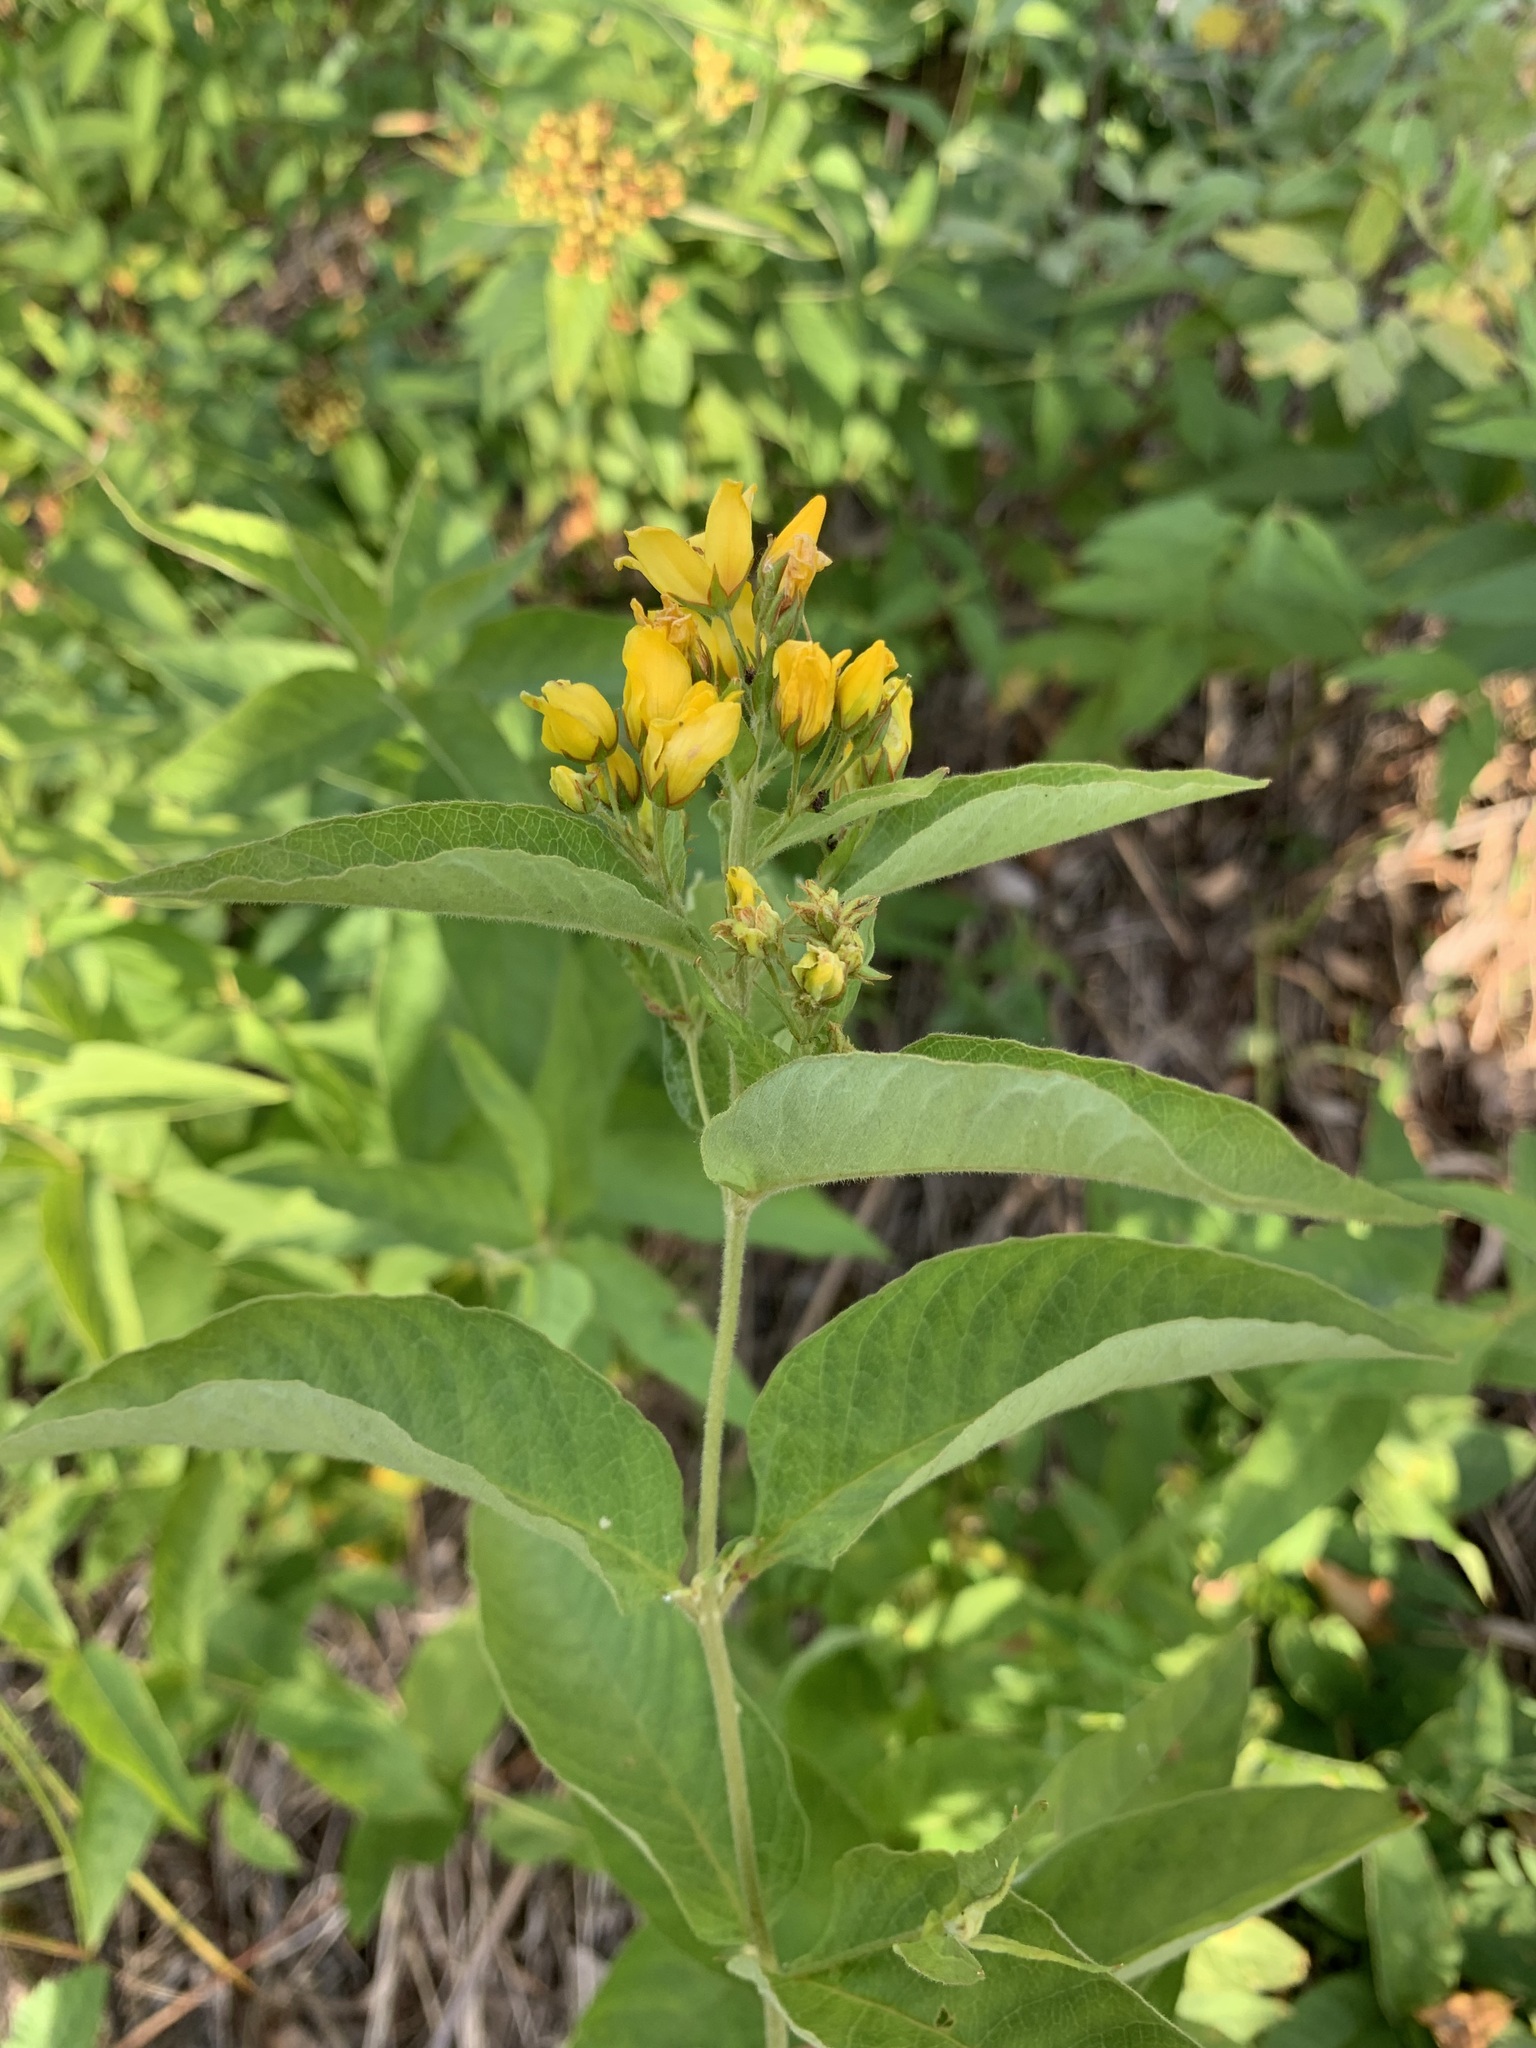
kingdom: Plantae
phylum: Tracheophyta
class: Magnoliopsida
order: Ericales
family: Primulaceae
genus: Lysimachia
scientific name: Lysimachia vulgaris
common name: Yellow loosestrife
